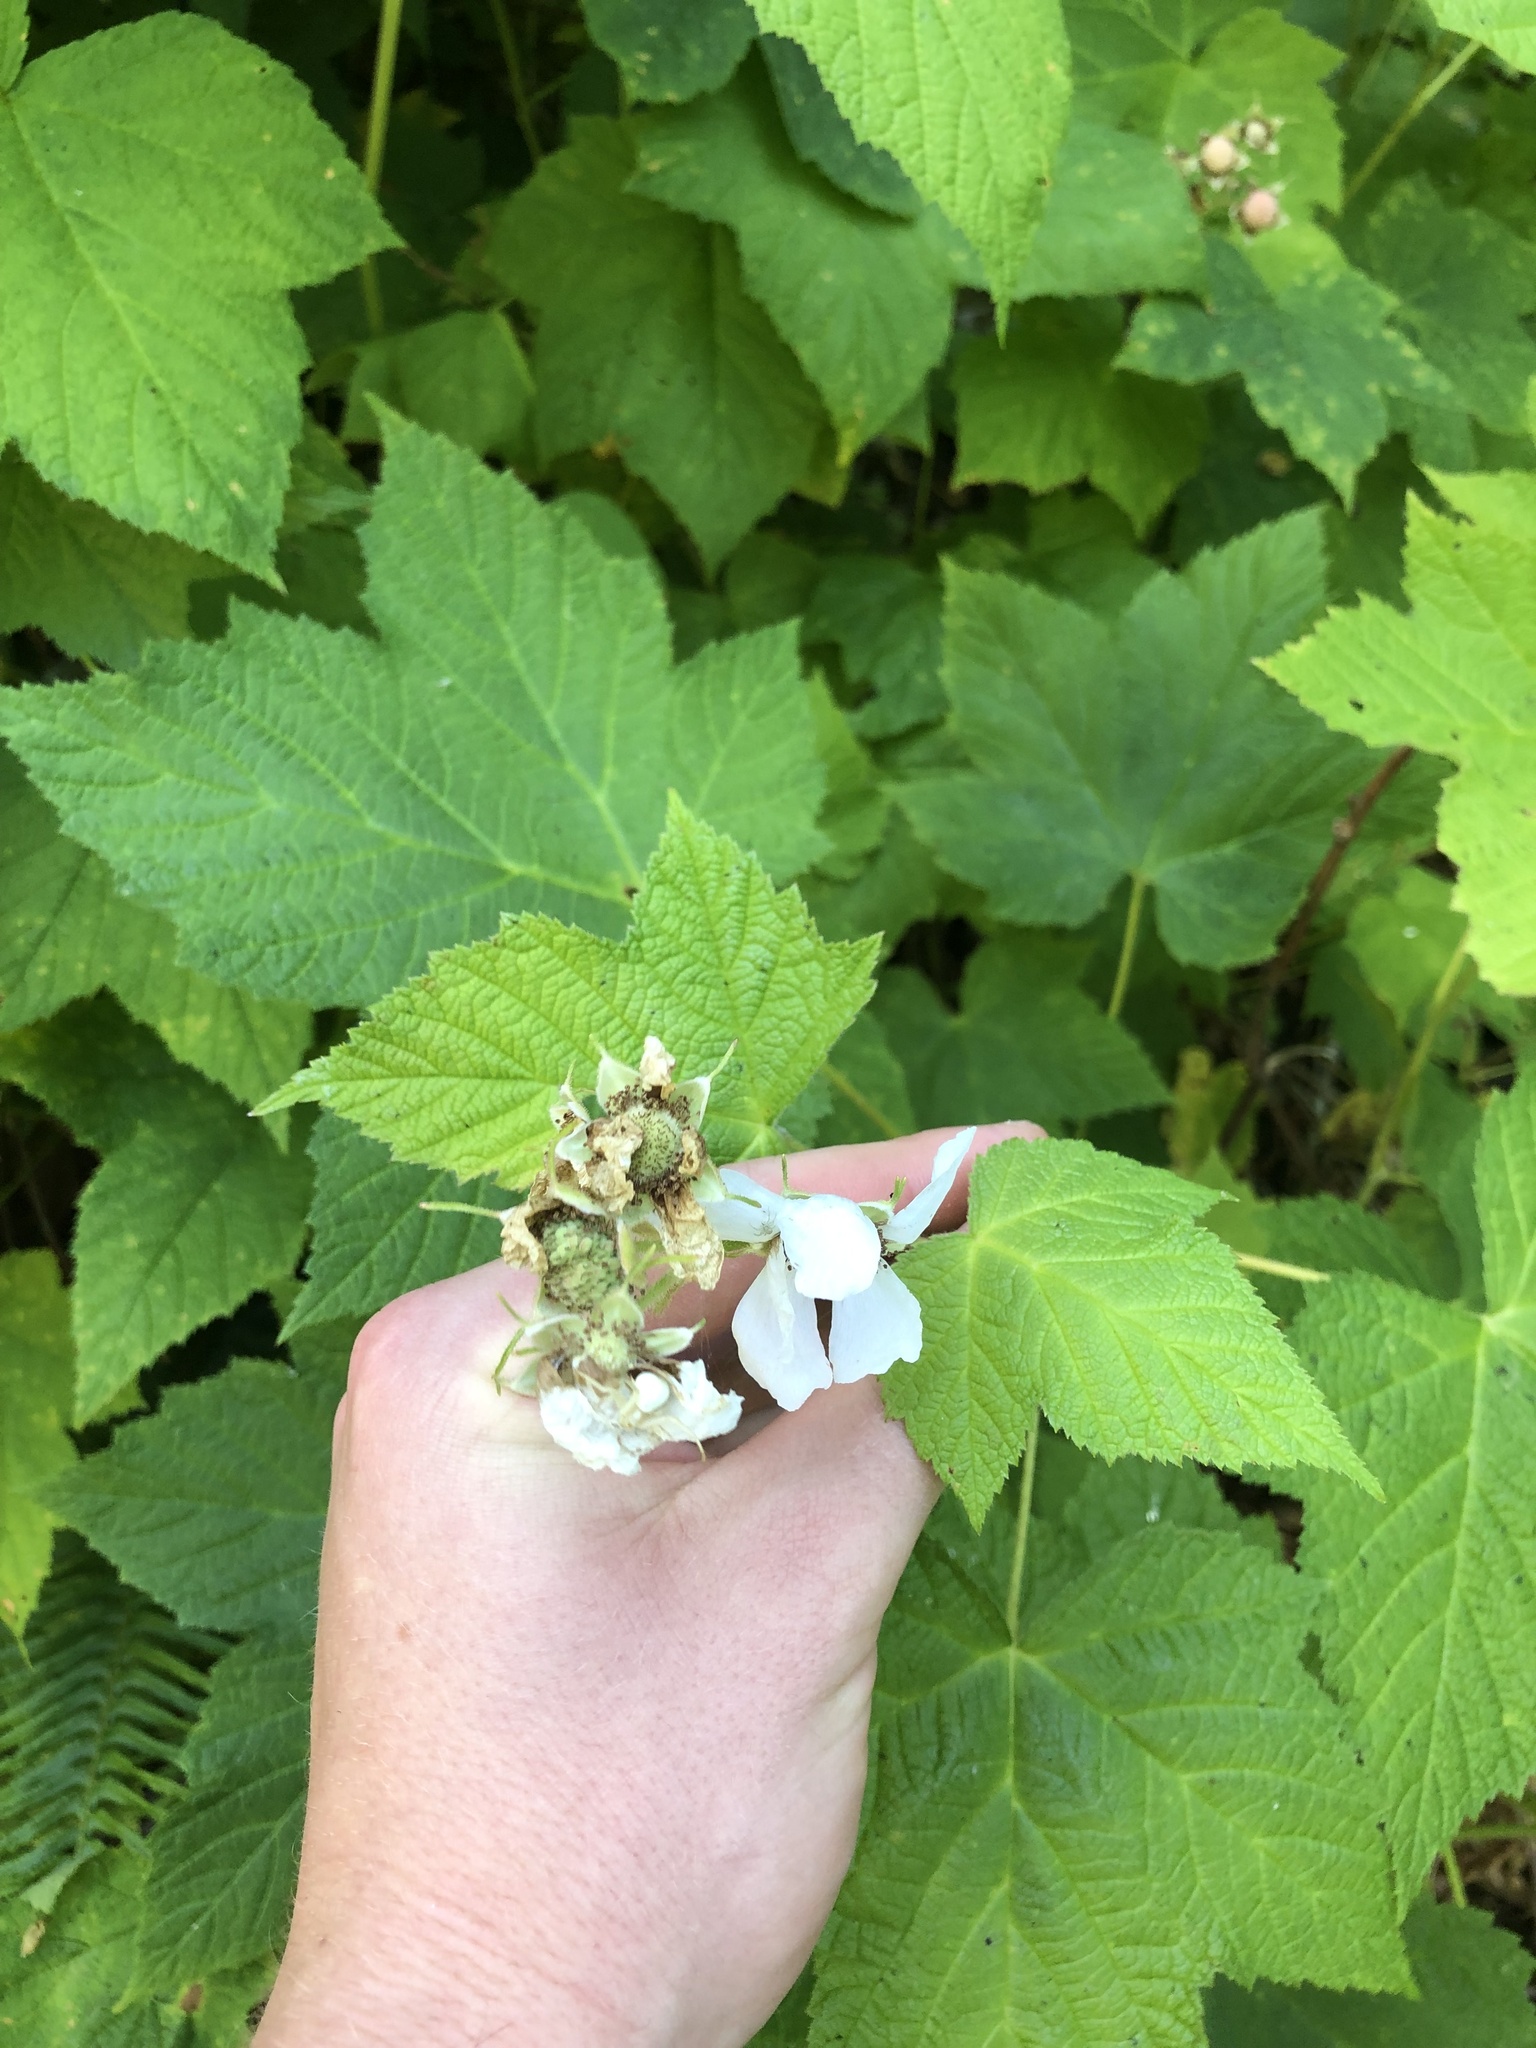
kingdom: Plantae
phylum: Tracheophyta
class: Magnoliopsida
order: Rosales
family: Rosaceae
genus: Rubus
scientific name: Rubus parviflorus
